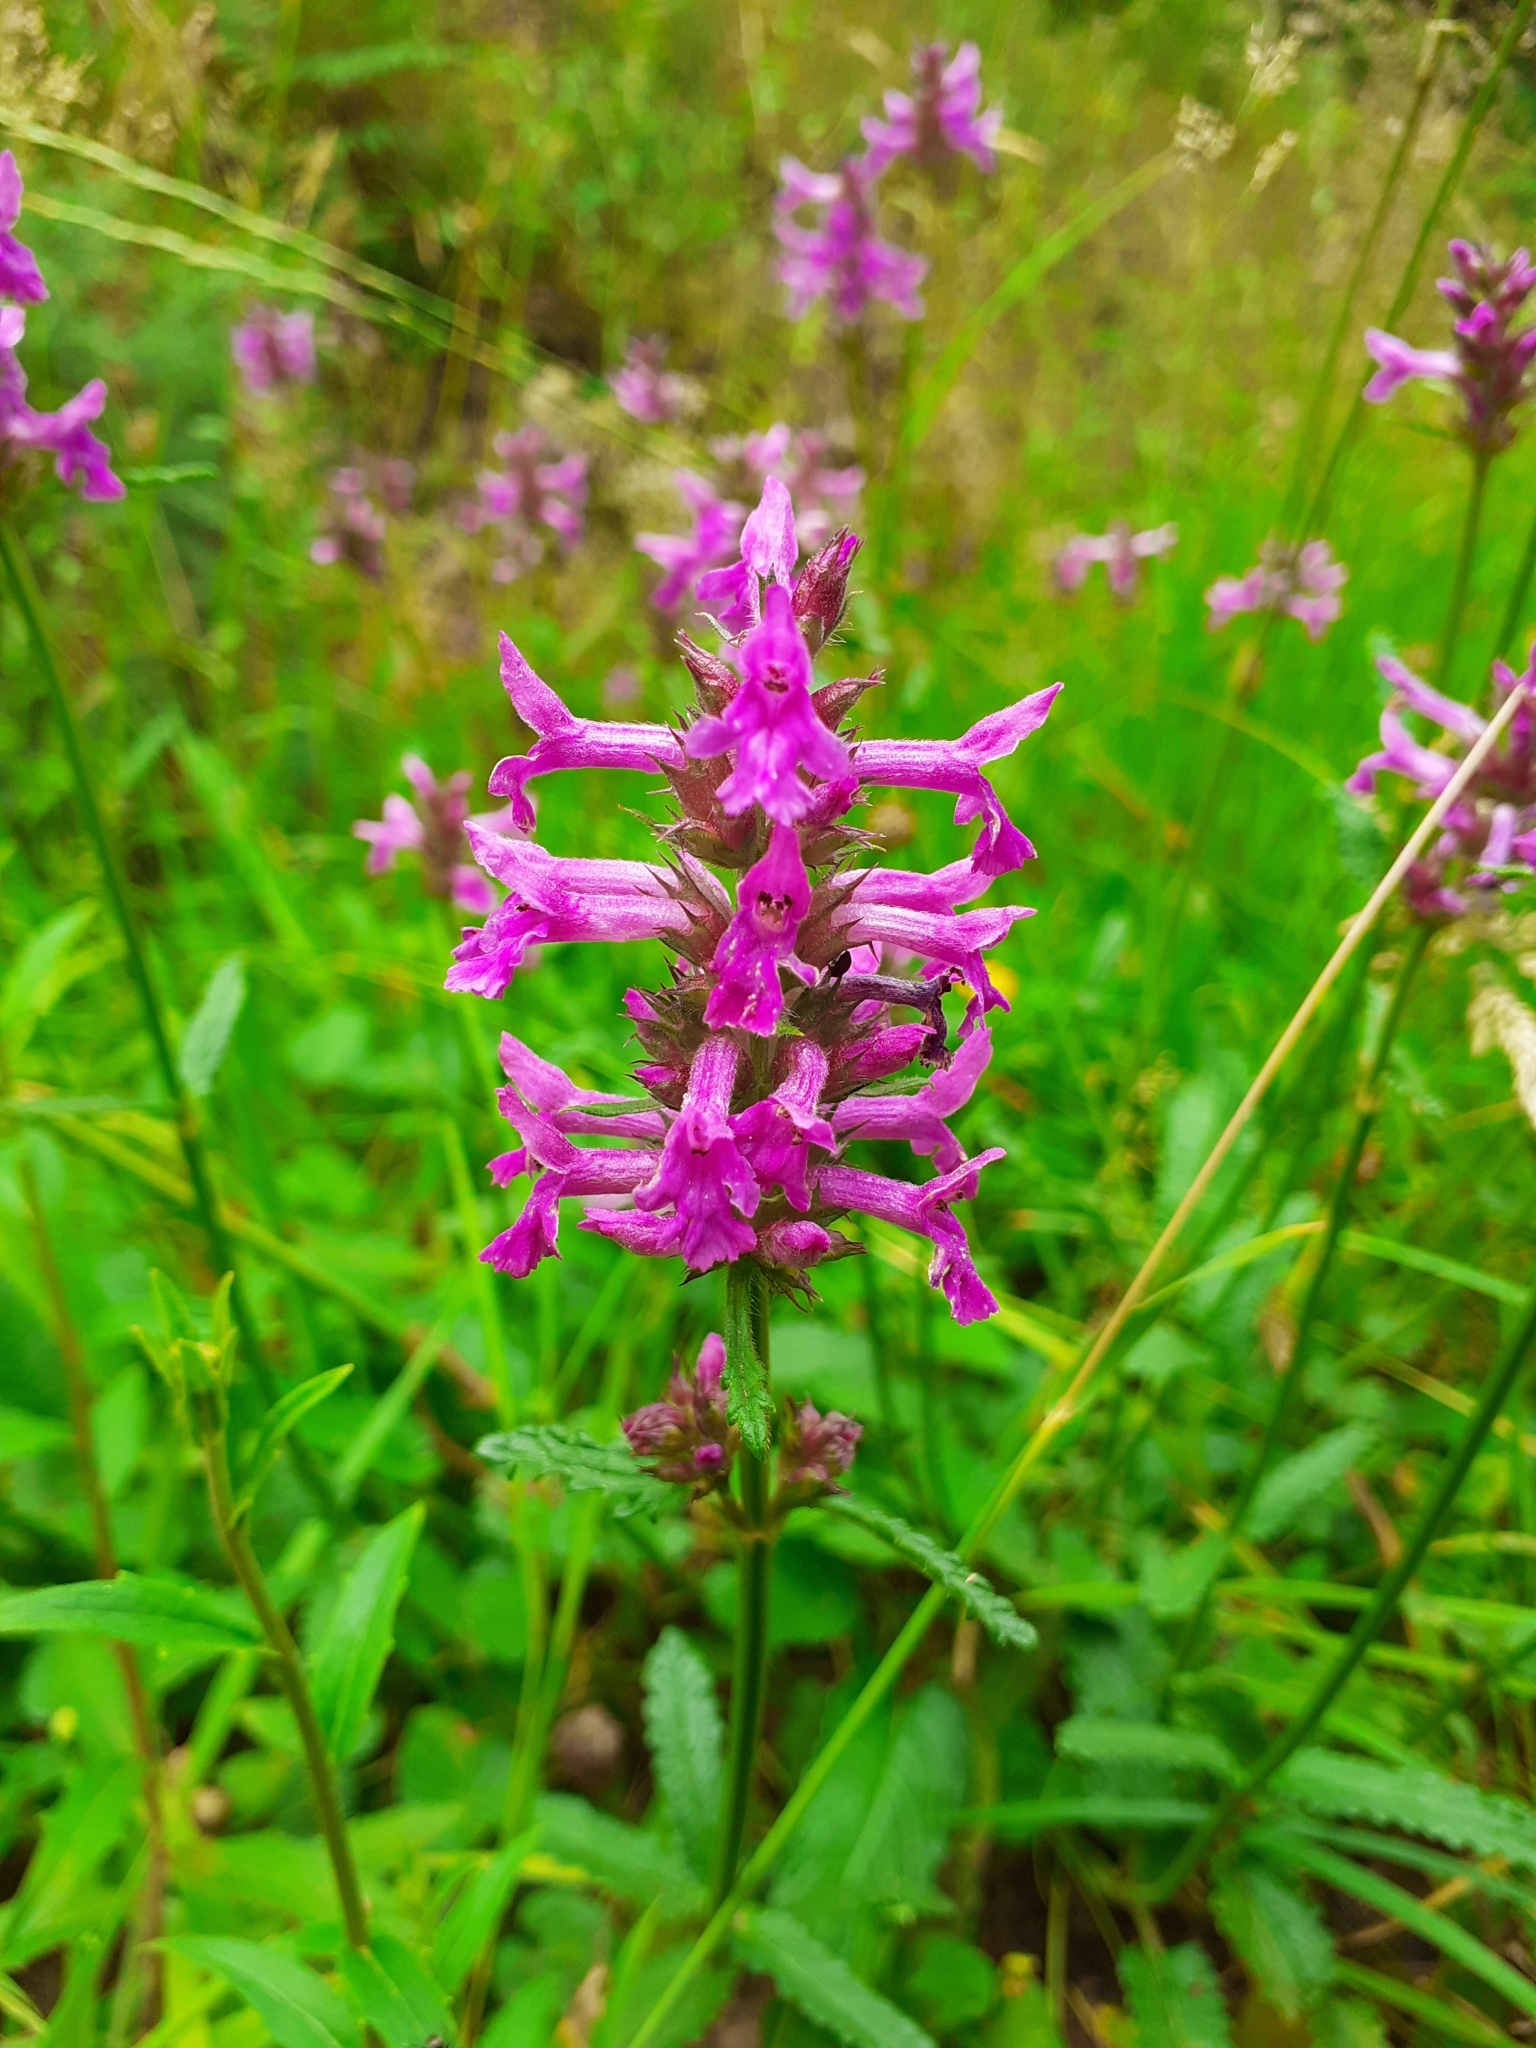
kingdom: Plantae
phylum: Tracheophyta
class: Magnoliopsida
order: Lamiales
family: Lamiaceae
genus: Betonica
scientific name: Betonica officinalis
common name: Bishop's-wort
